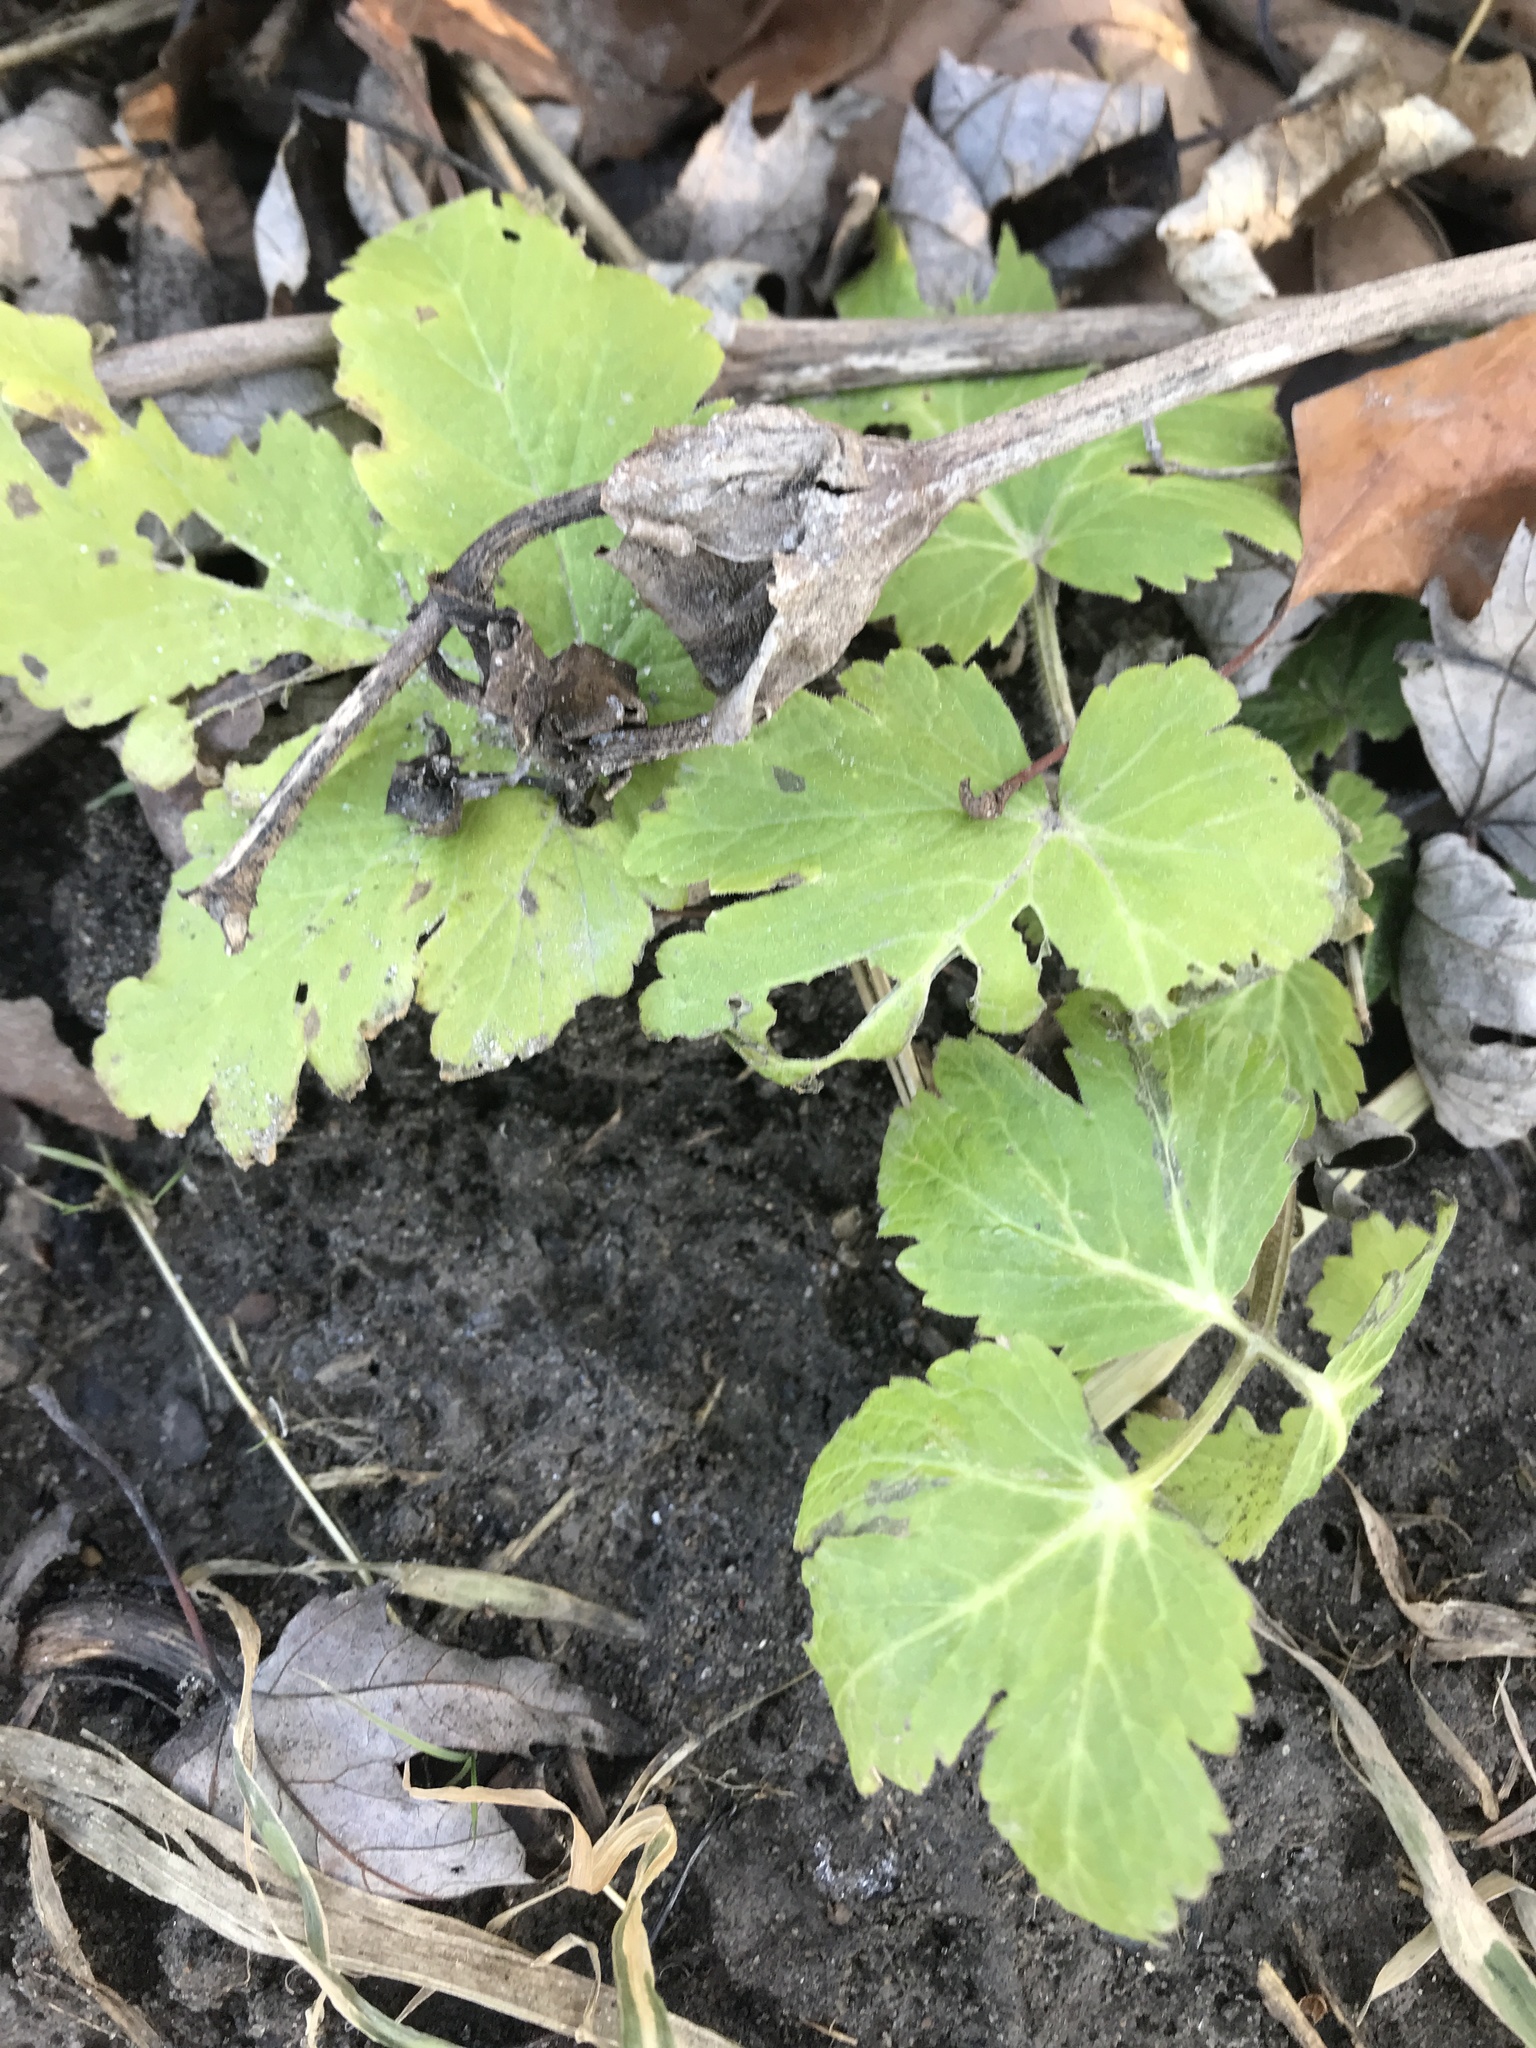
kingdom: Plantae
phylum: Tracheophyta
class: Magnoliopsida
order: Ranunculales
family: Papaveraceae
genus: Chelidonium
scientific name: Chelidonium majus
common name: Greater celandine
